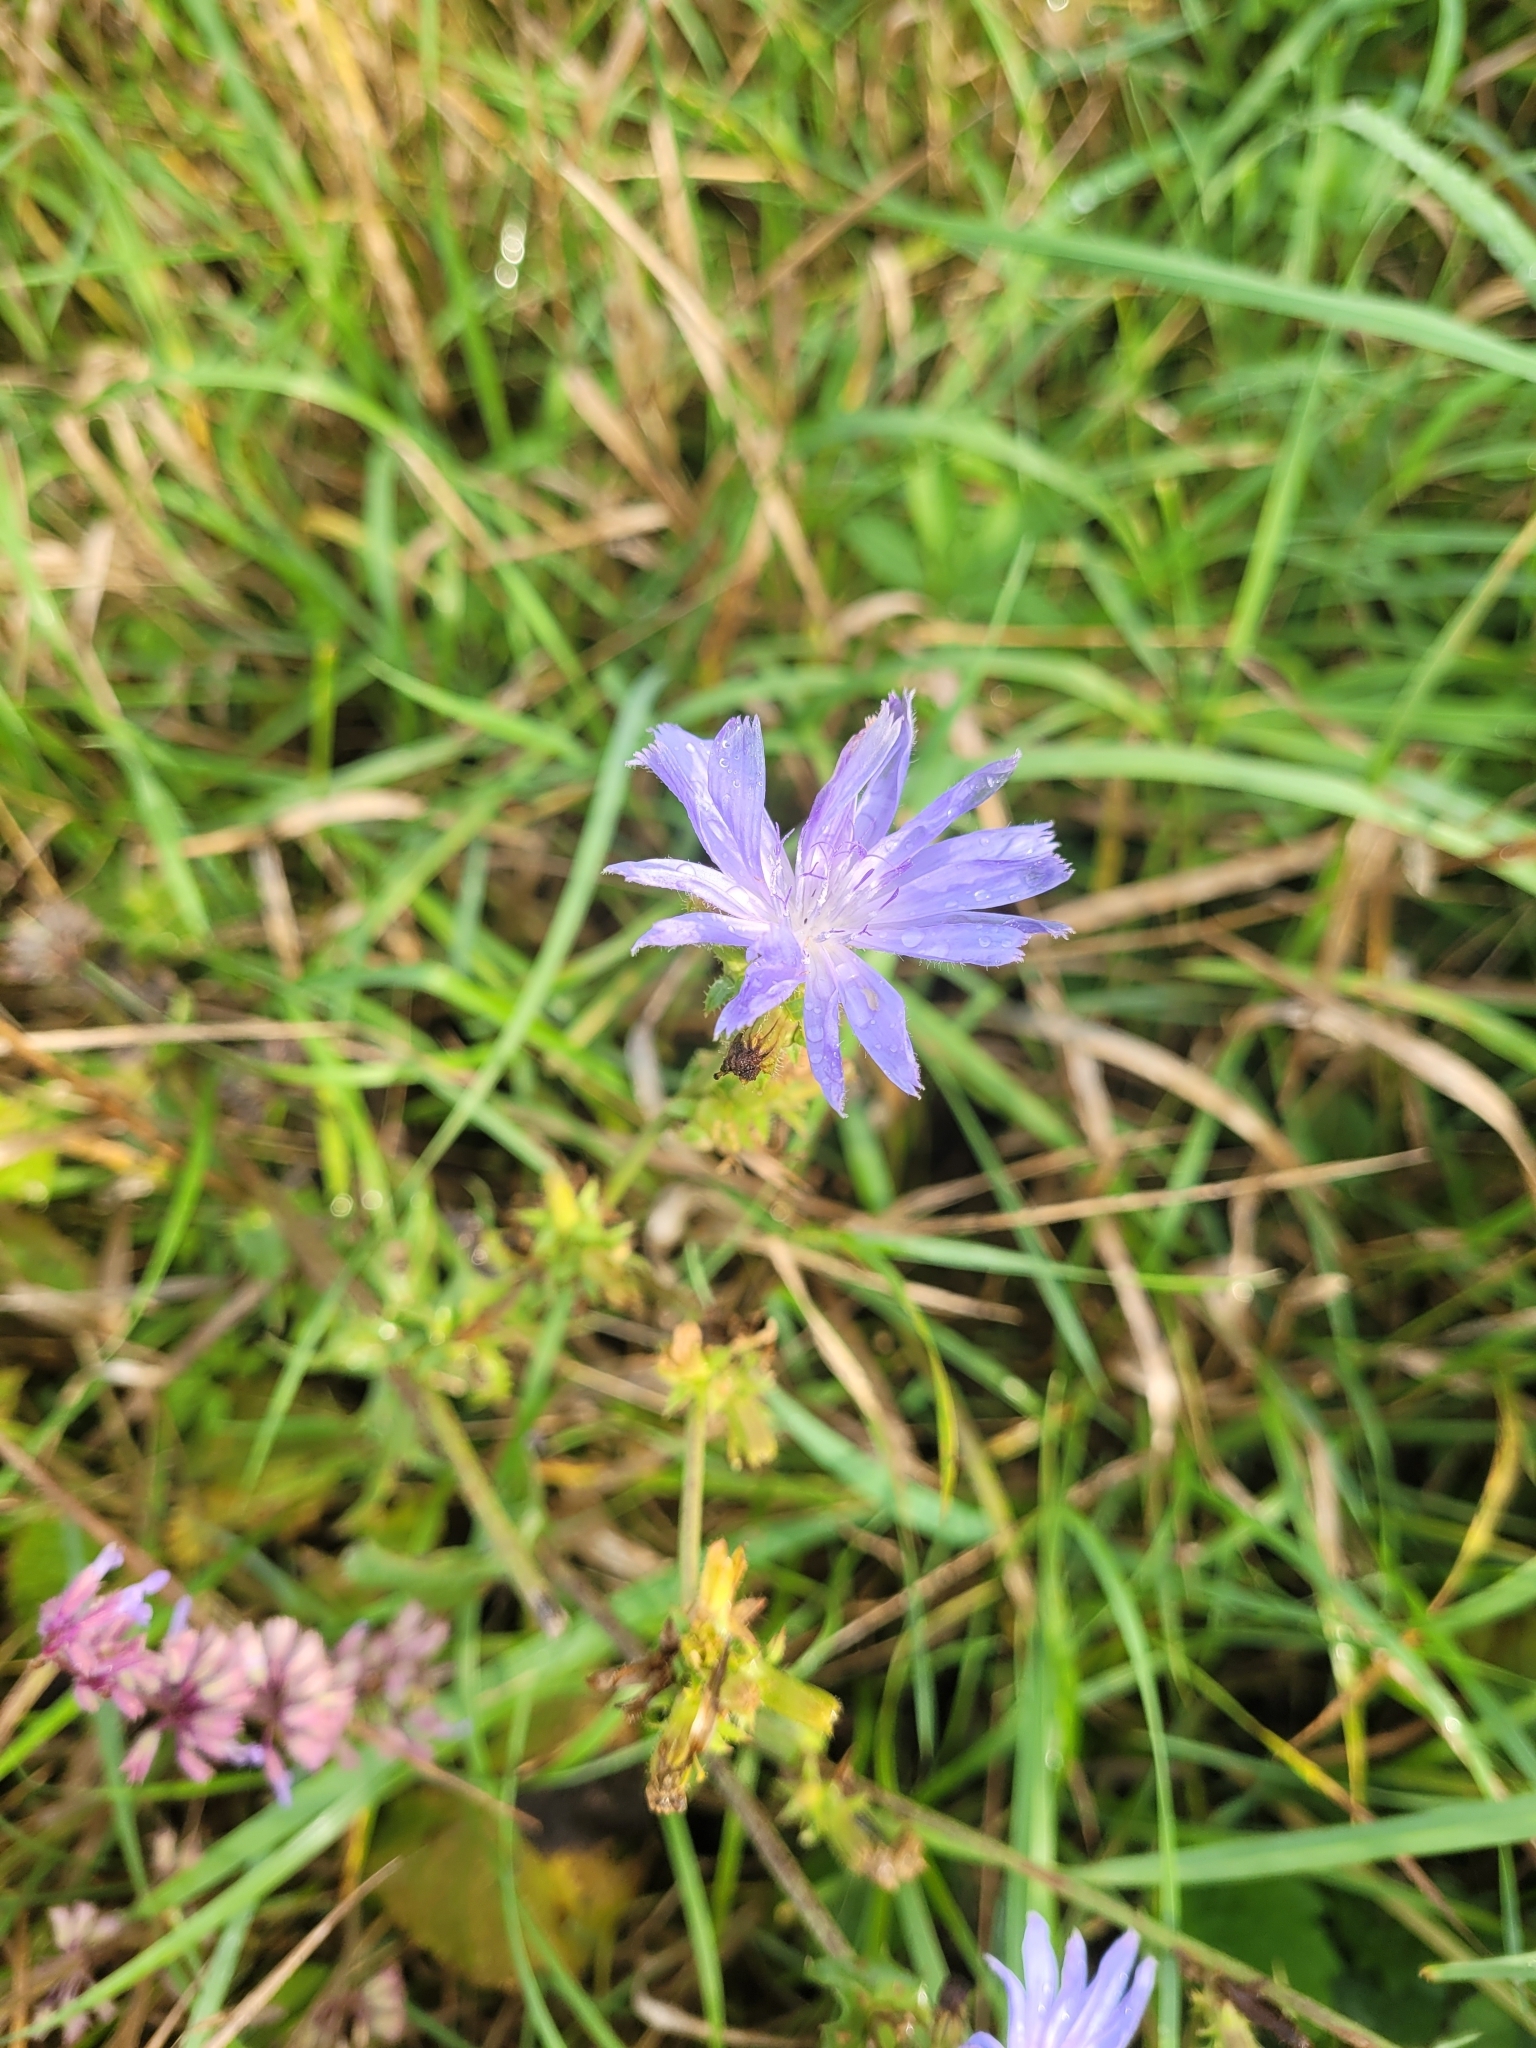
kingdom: Plantae
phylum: Tracheophyta
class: Magnoliopsida
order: Asterales
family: Asteraceae
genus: Cichorium
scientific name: Cichorium intybus
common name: Chicory
